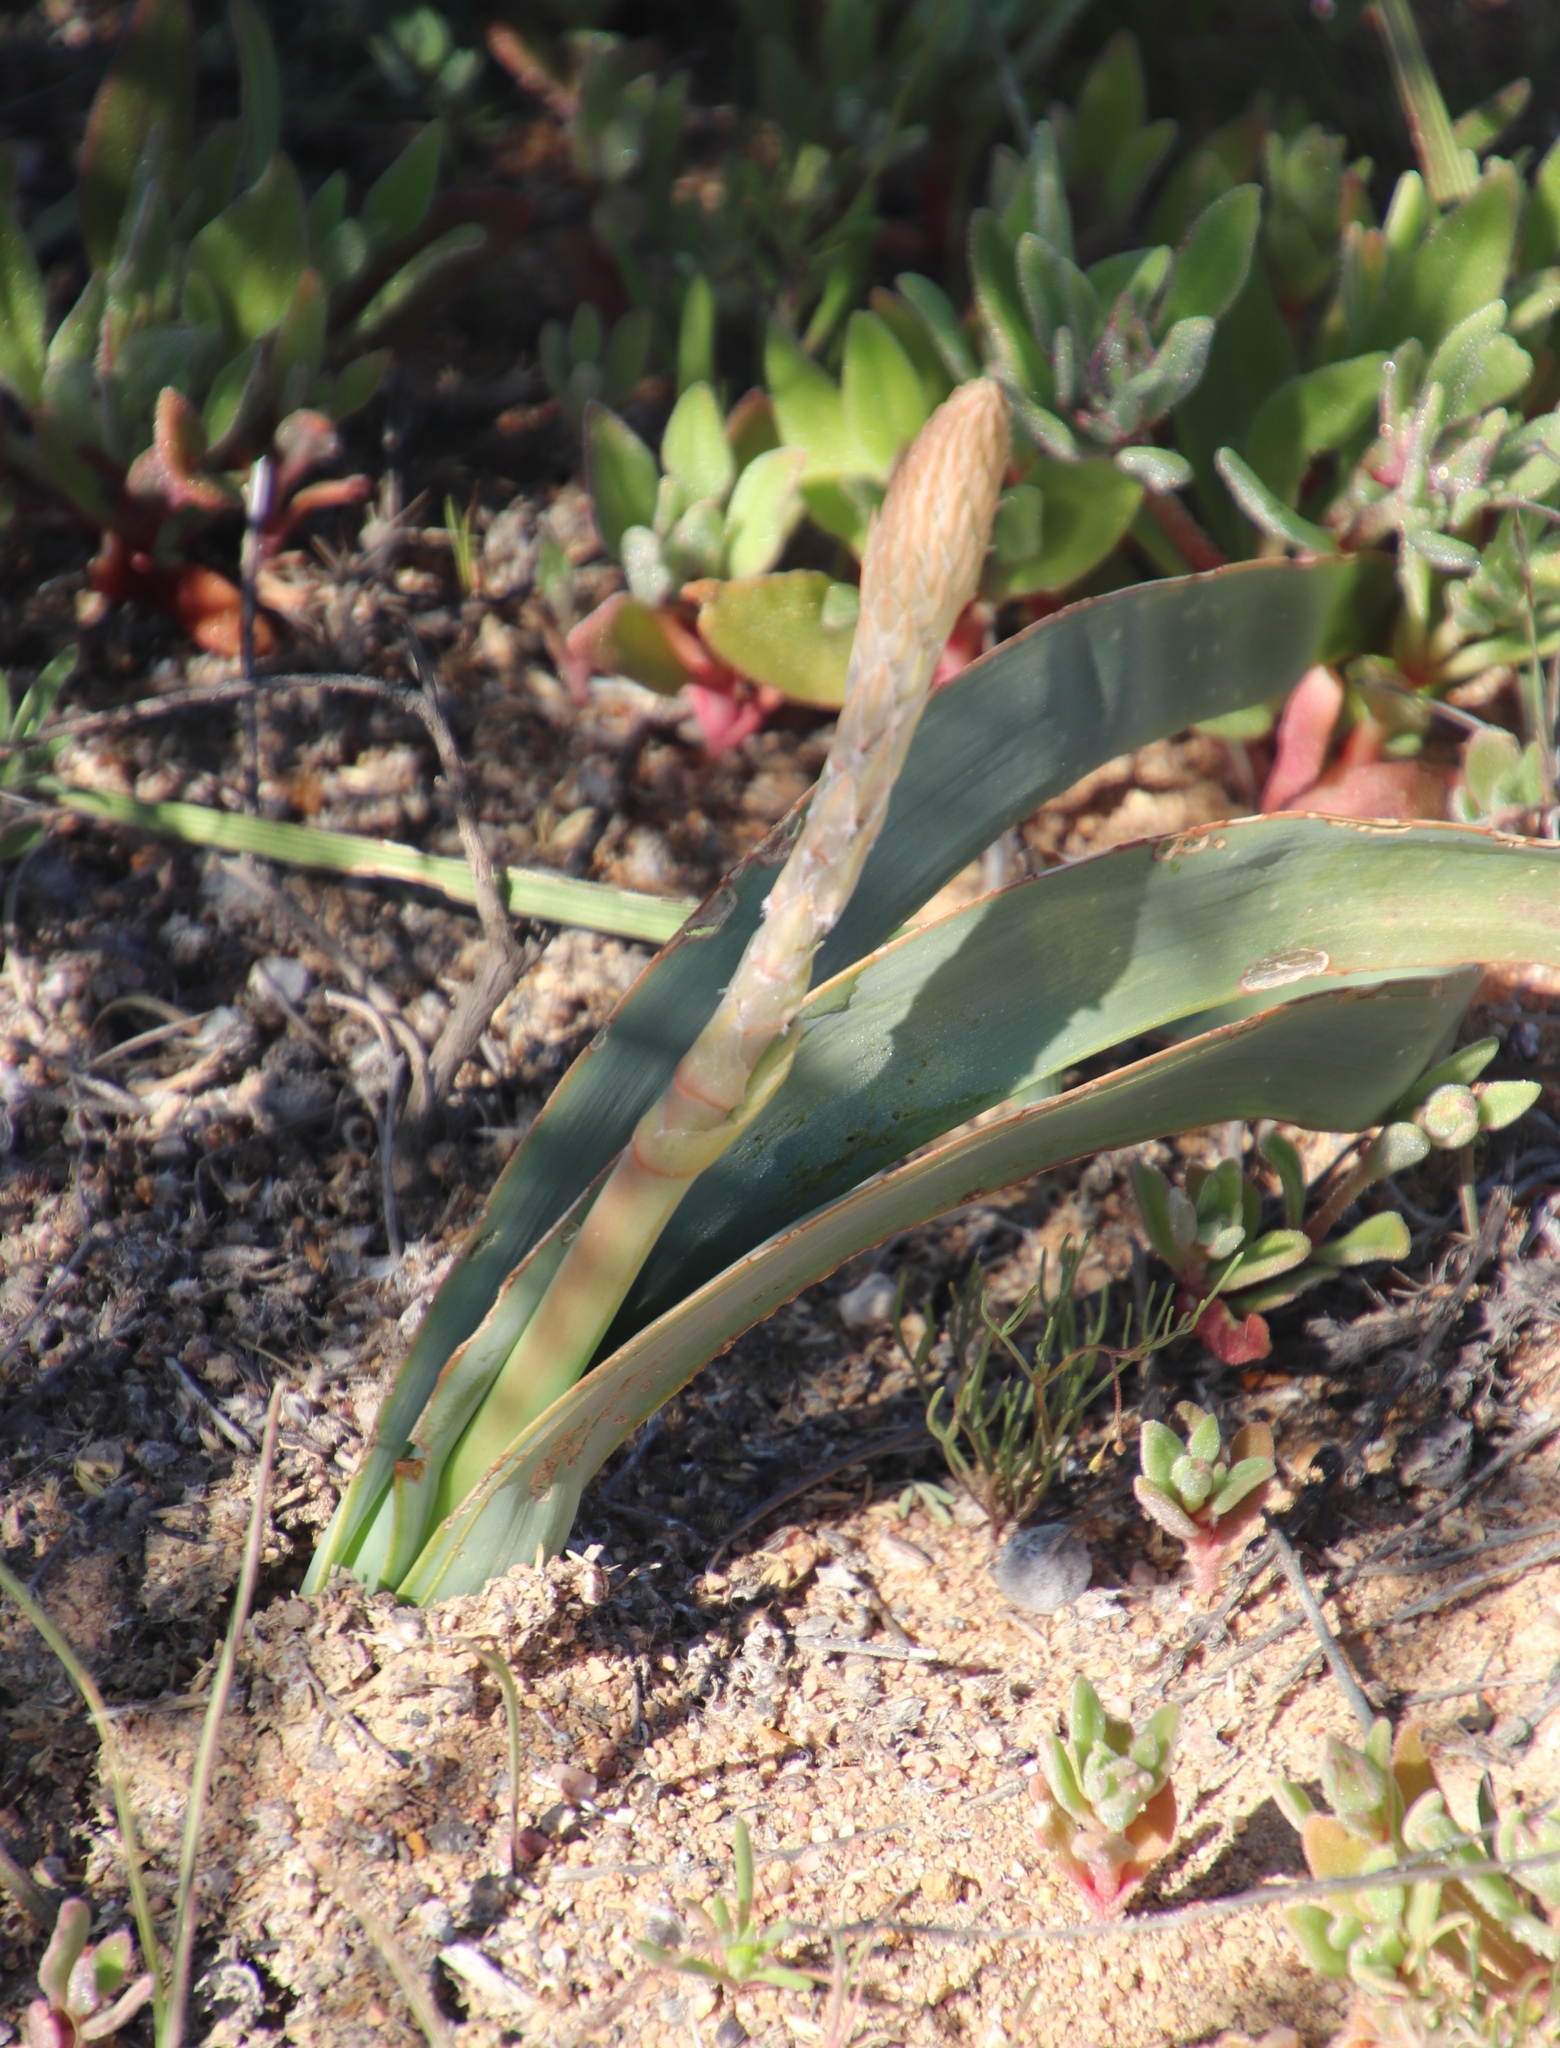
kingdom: Plantae
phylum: Tracheophyta
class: Liliopsida
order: Asparagales
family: Asphodelaceae
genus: Trachyandra
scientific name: Trachyandra falcata
